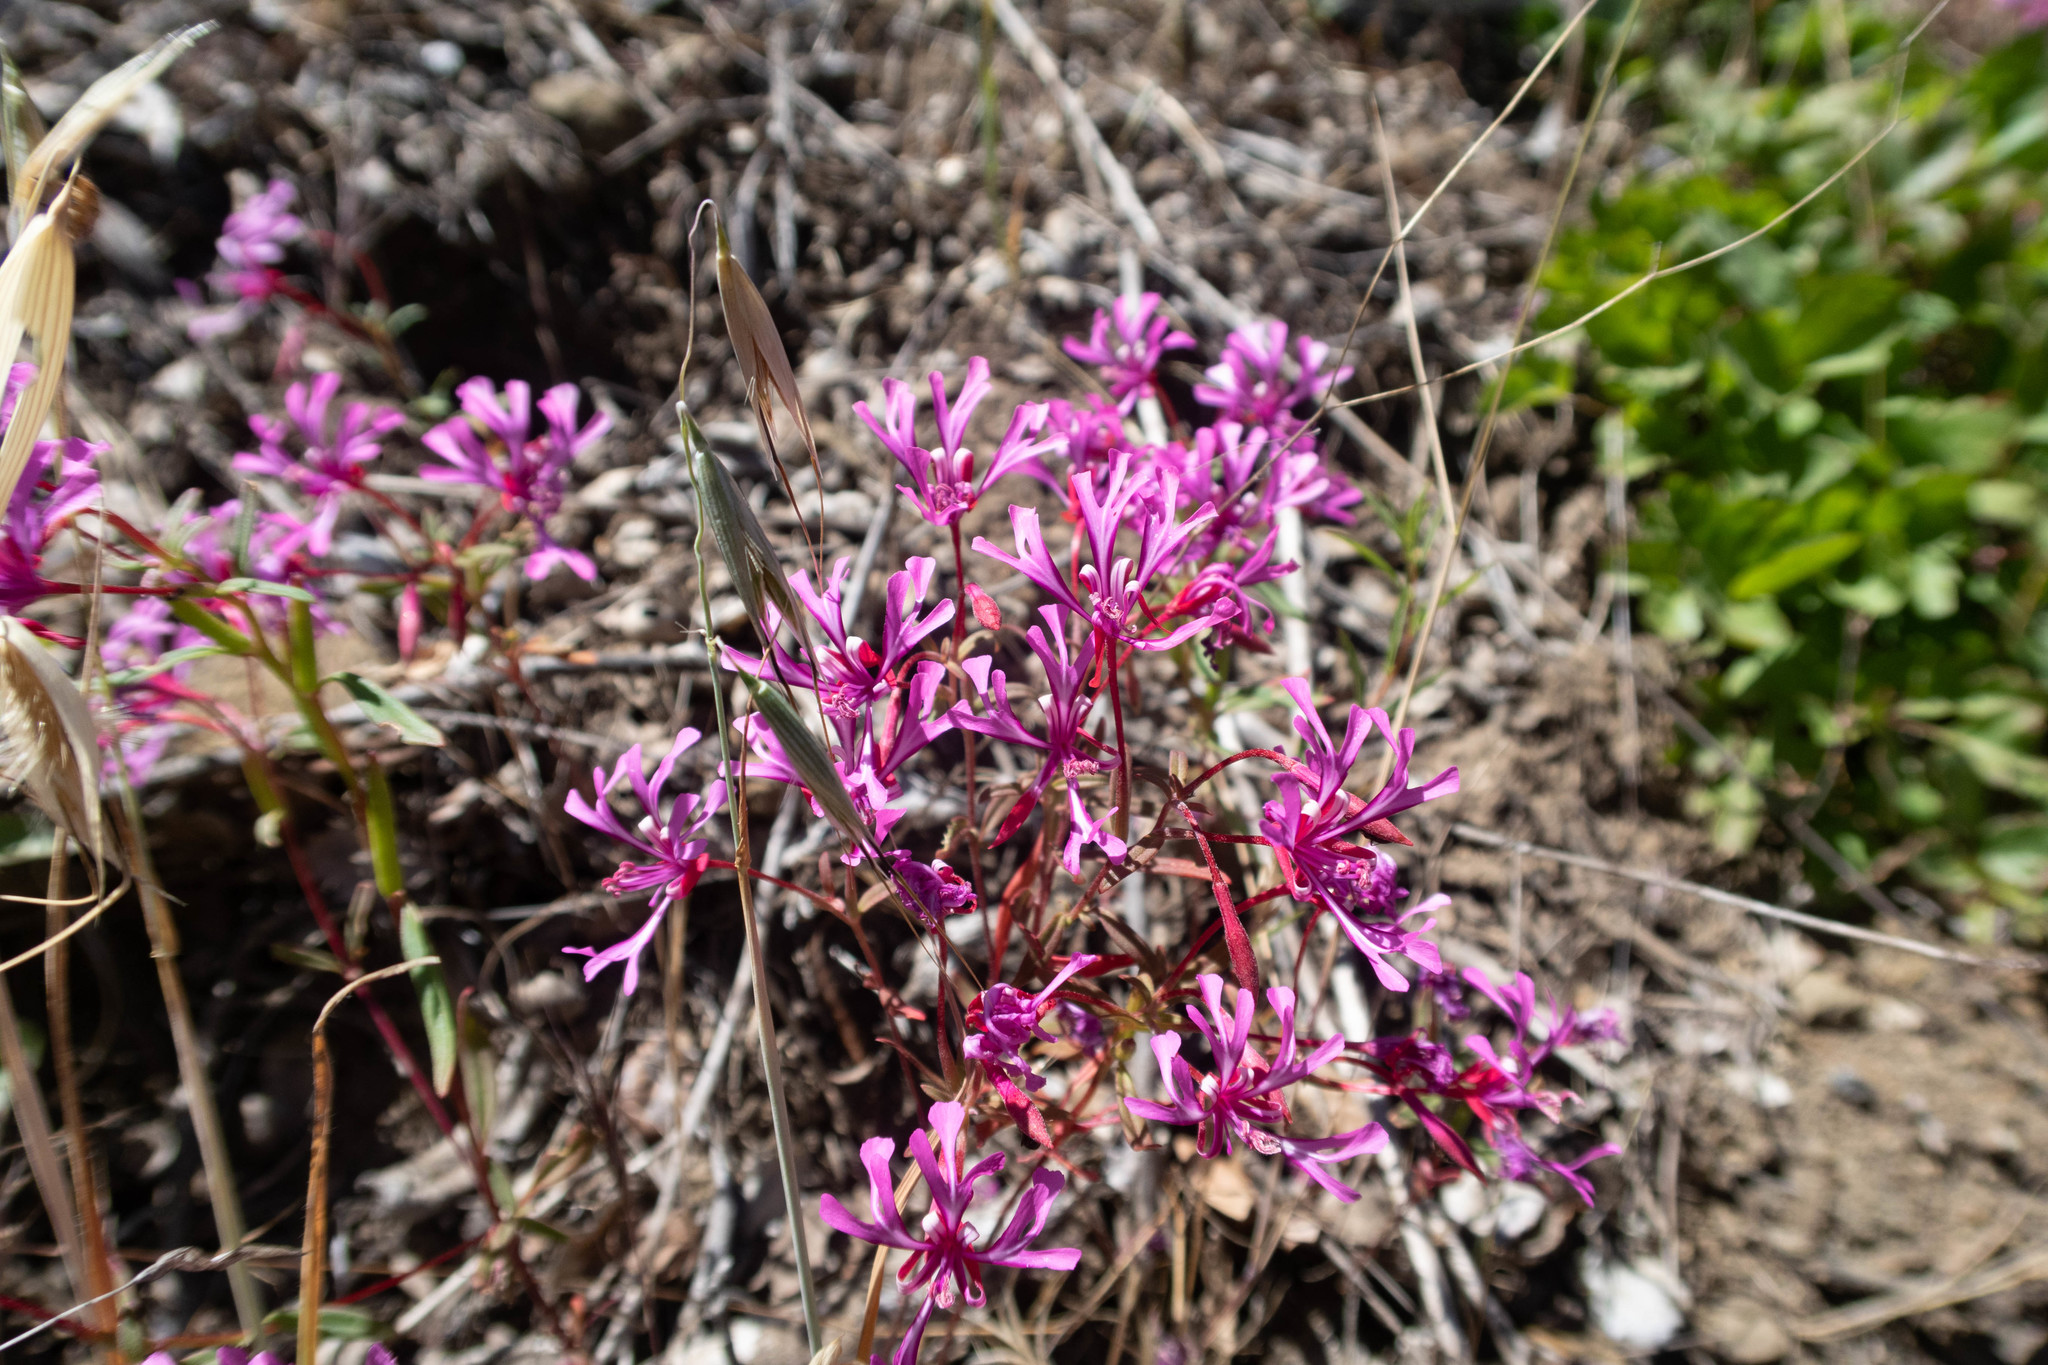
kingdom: Plantae
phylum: Tracheophyta
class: Magnoliopsida
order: Myrtales
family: Onagraceae
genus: Clarkia
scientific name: Clarkia concinna
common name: Red-ribbons
